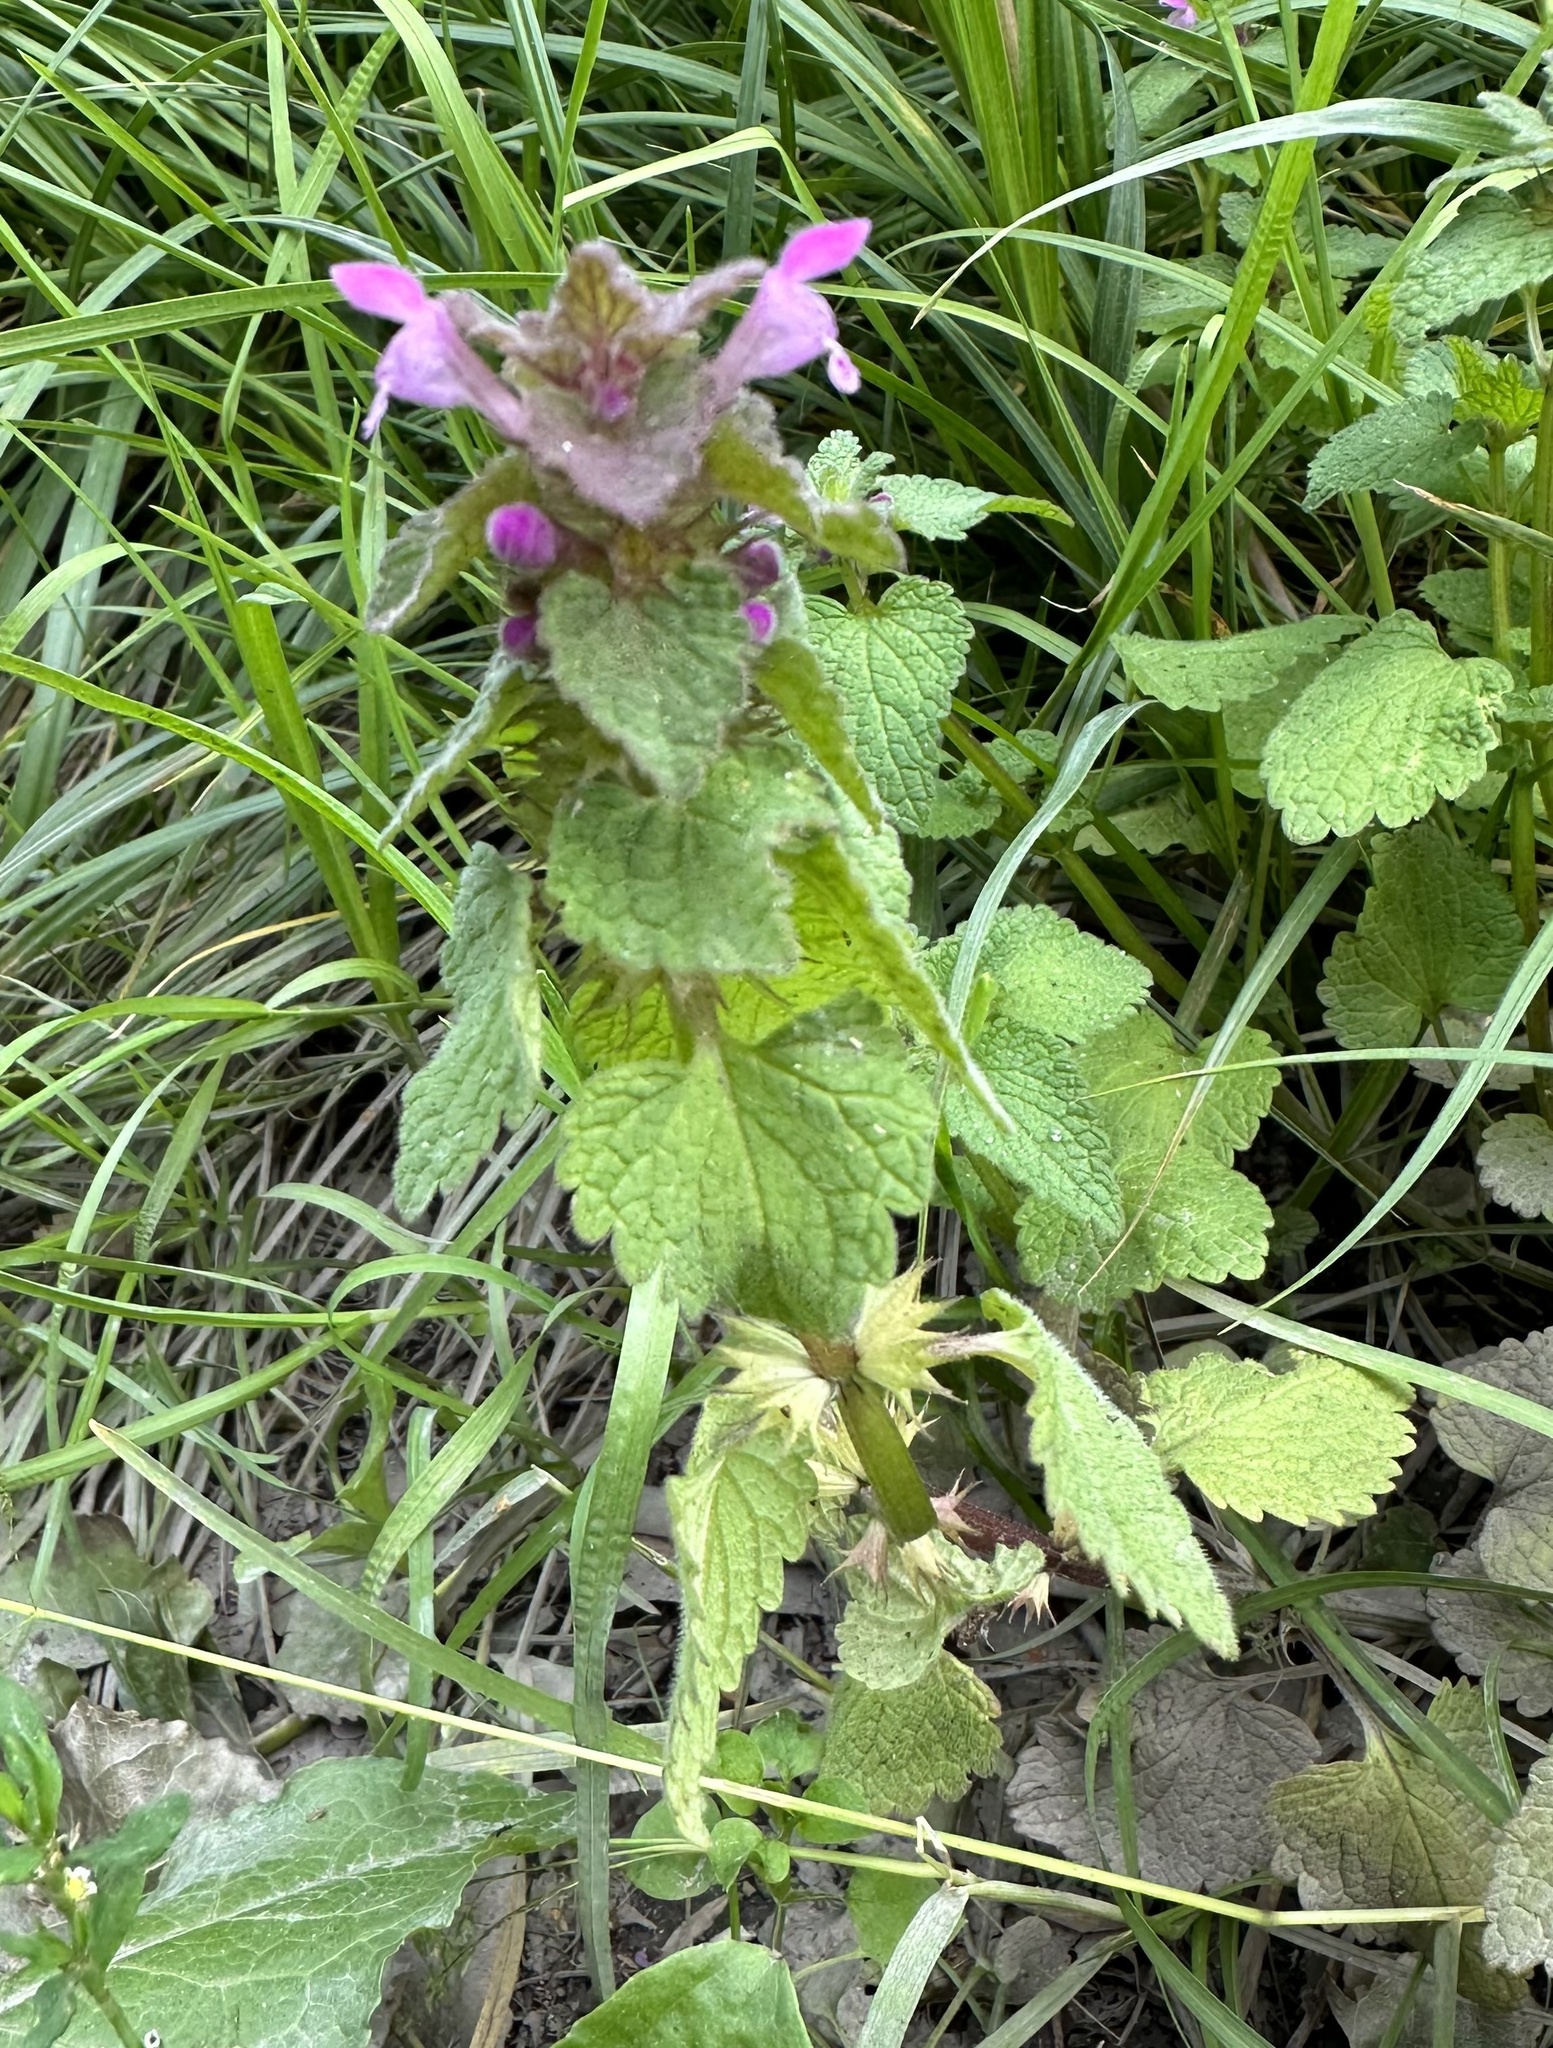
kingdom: Plantae
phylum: Tracheophyta
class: Magnoliopsida
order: Lamiales
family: Lamiaceae
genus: Lamium
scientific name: Lamium purpureum
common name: Red dead-nettle
